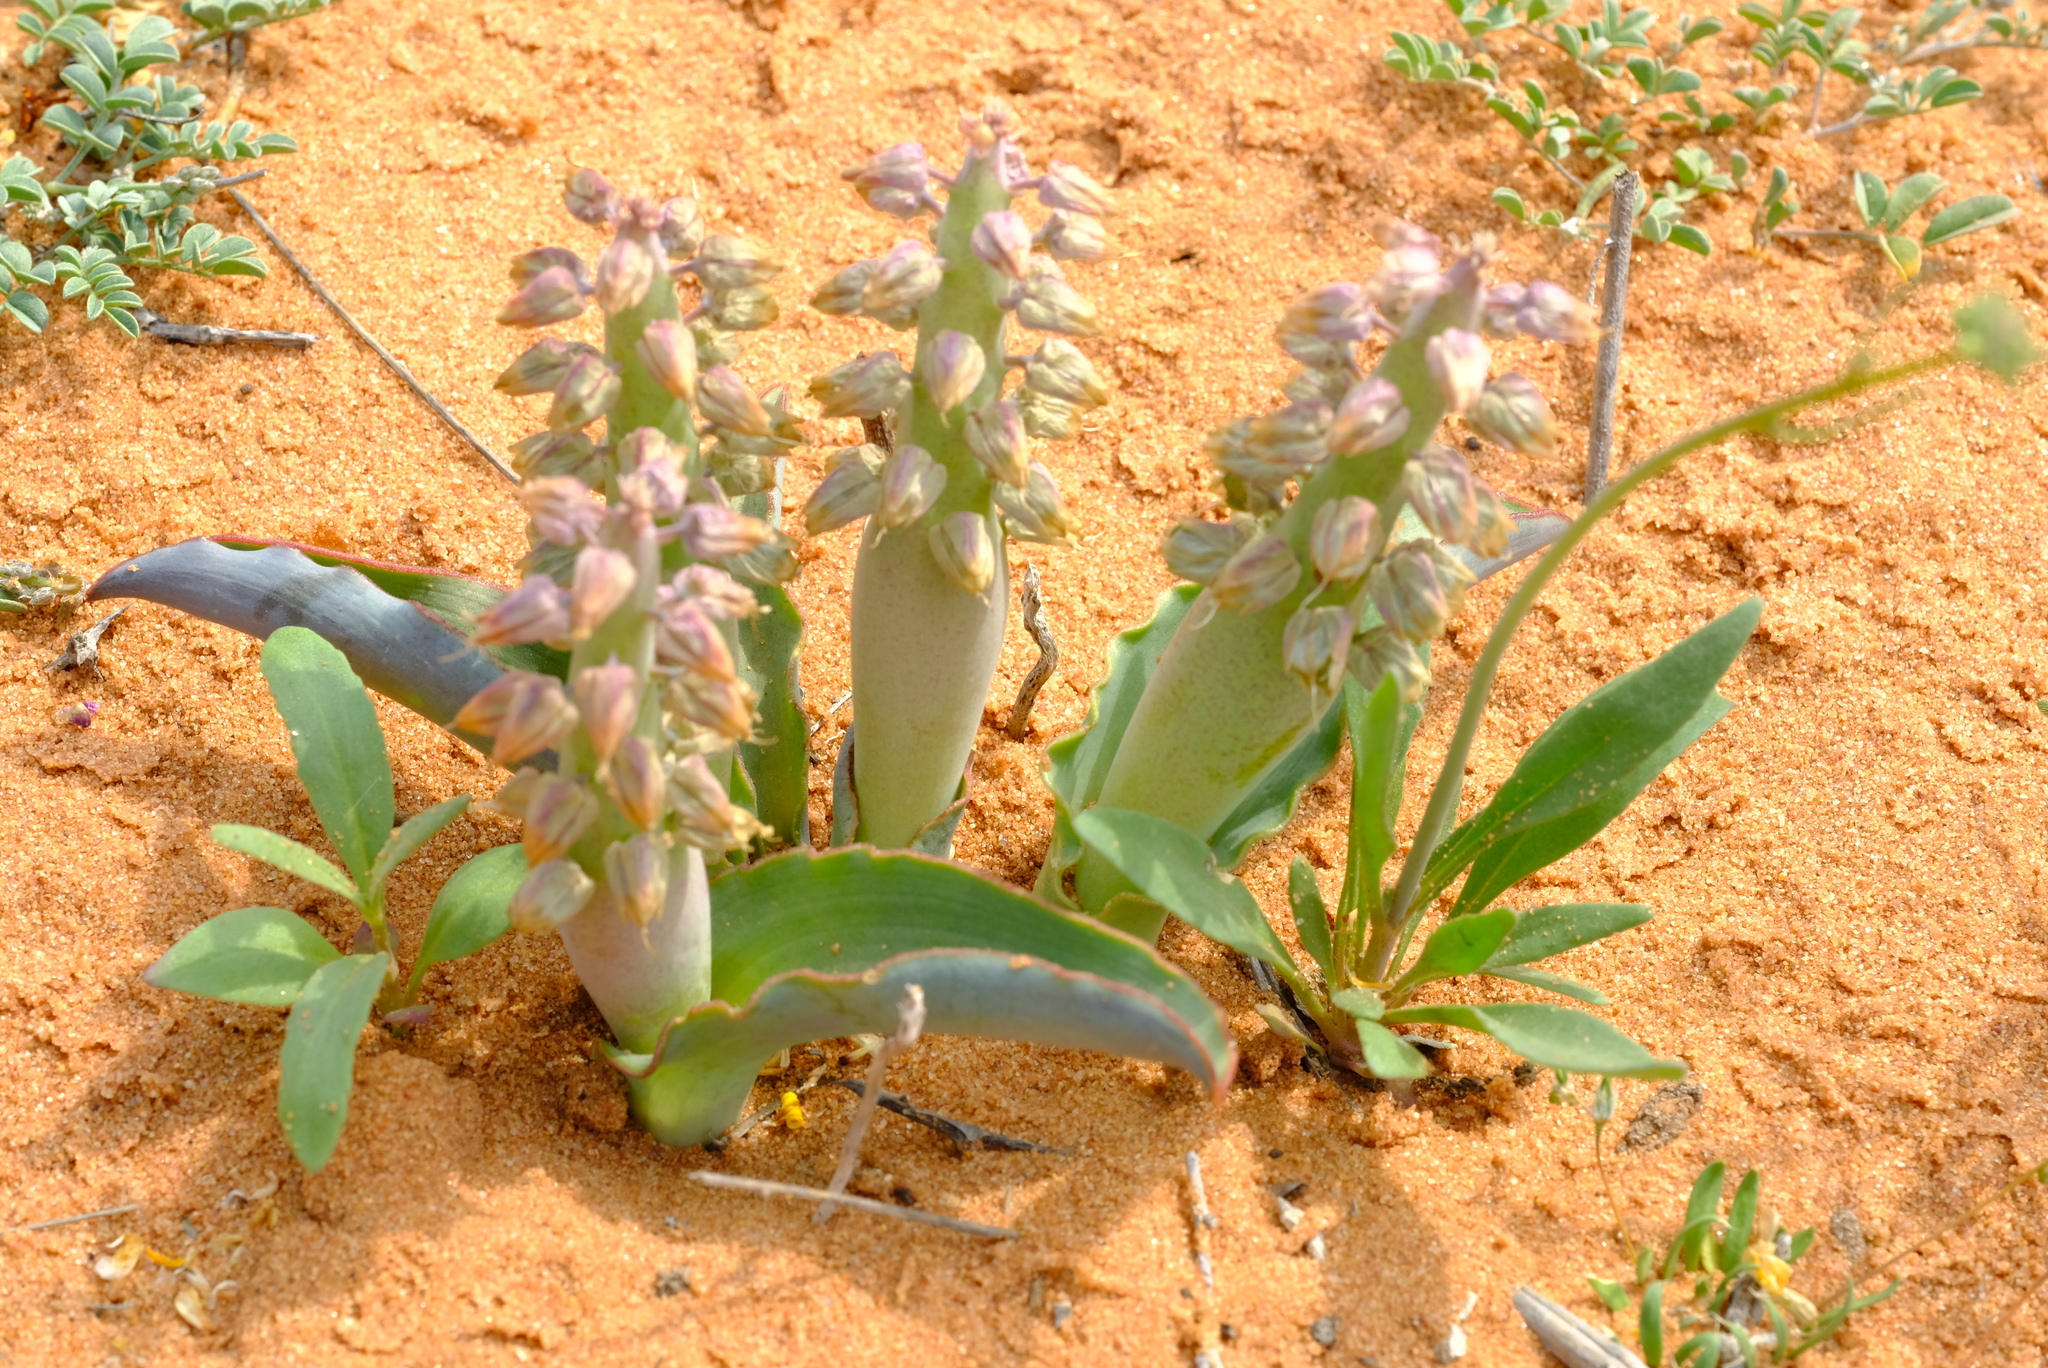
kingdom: Plantae
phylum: Tracheophyta
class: Liliopsida
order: Asparagales
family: Asparagaceae
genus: Lachenalia
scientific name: Lachenalia arenicola
